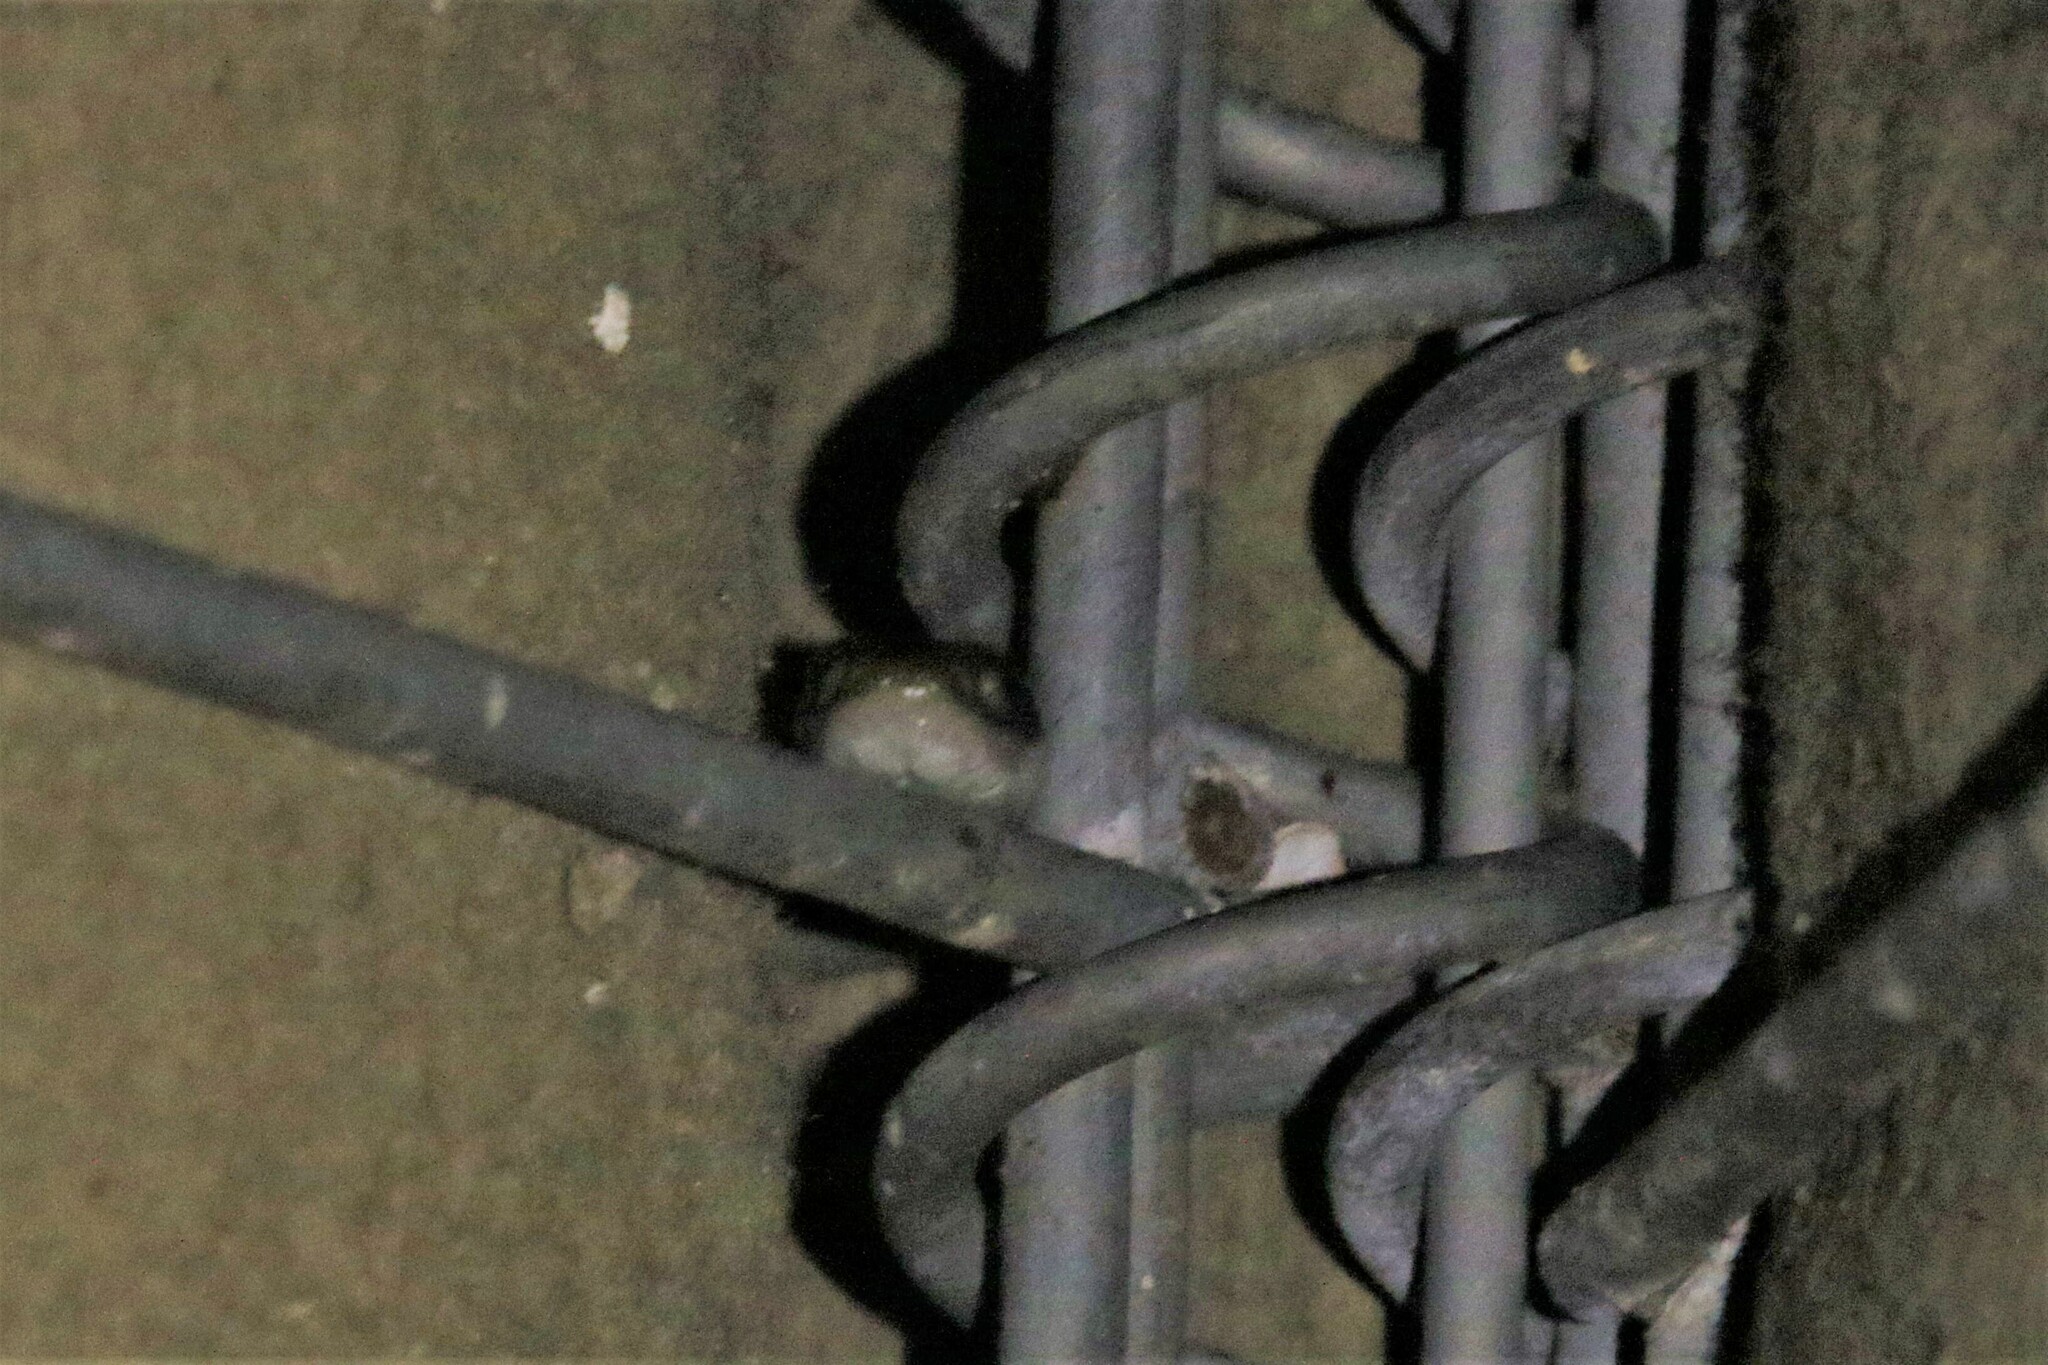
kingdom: Animalia
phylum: Chordata
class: Squamata
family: Colubridae
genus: Crotaphopeltis
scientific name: Crotaphopeltis hotamboeia
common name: Red-lipped snake
